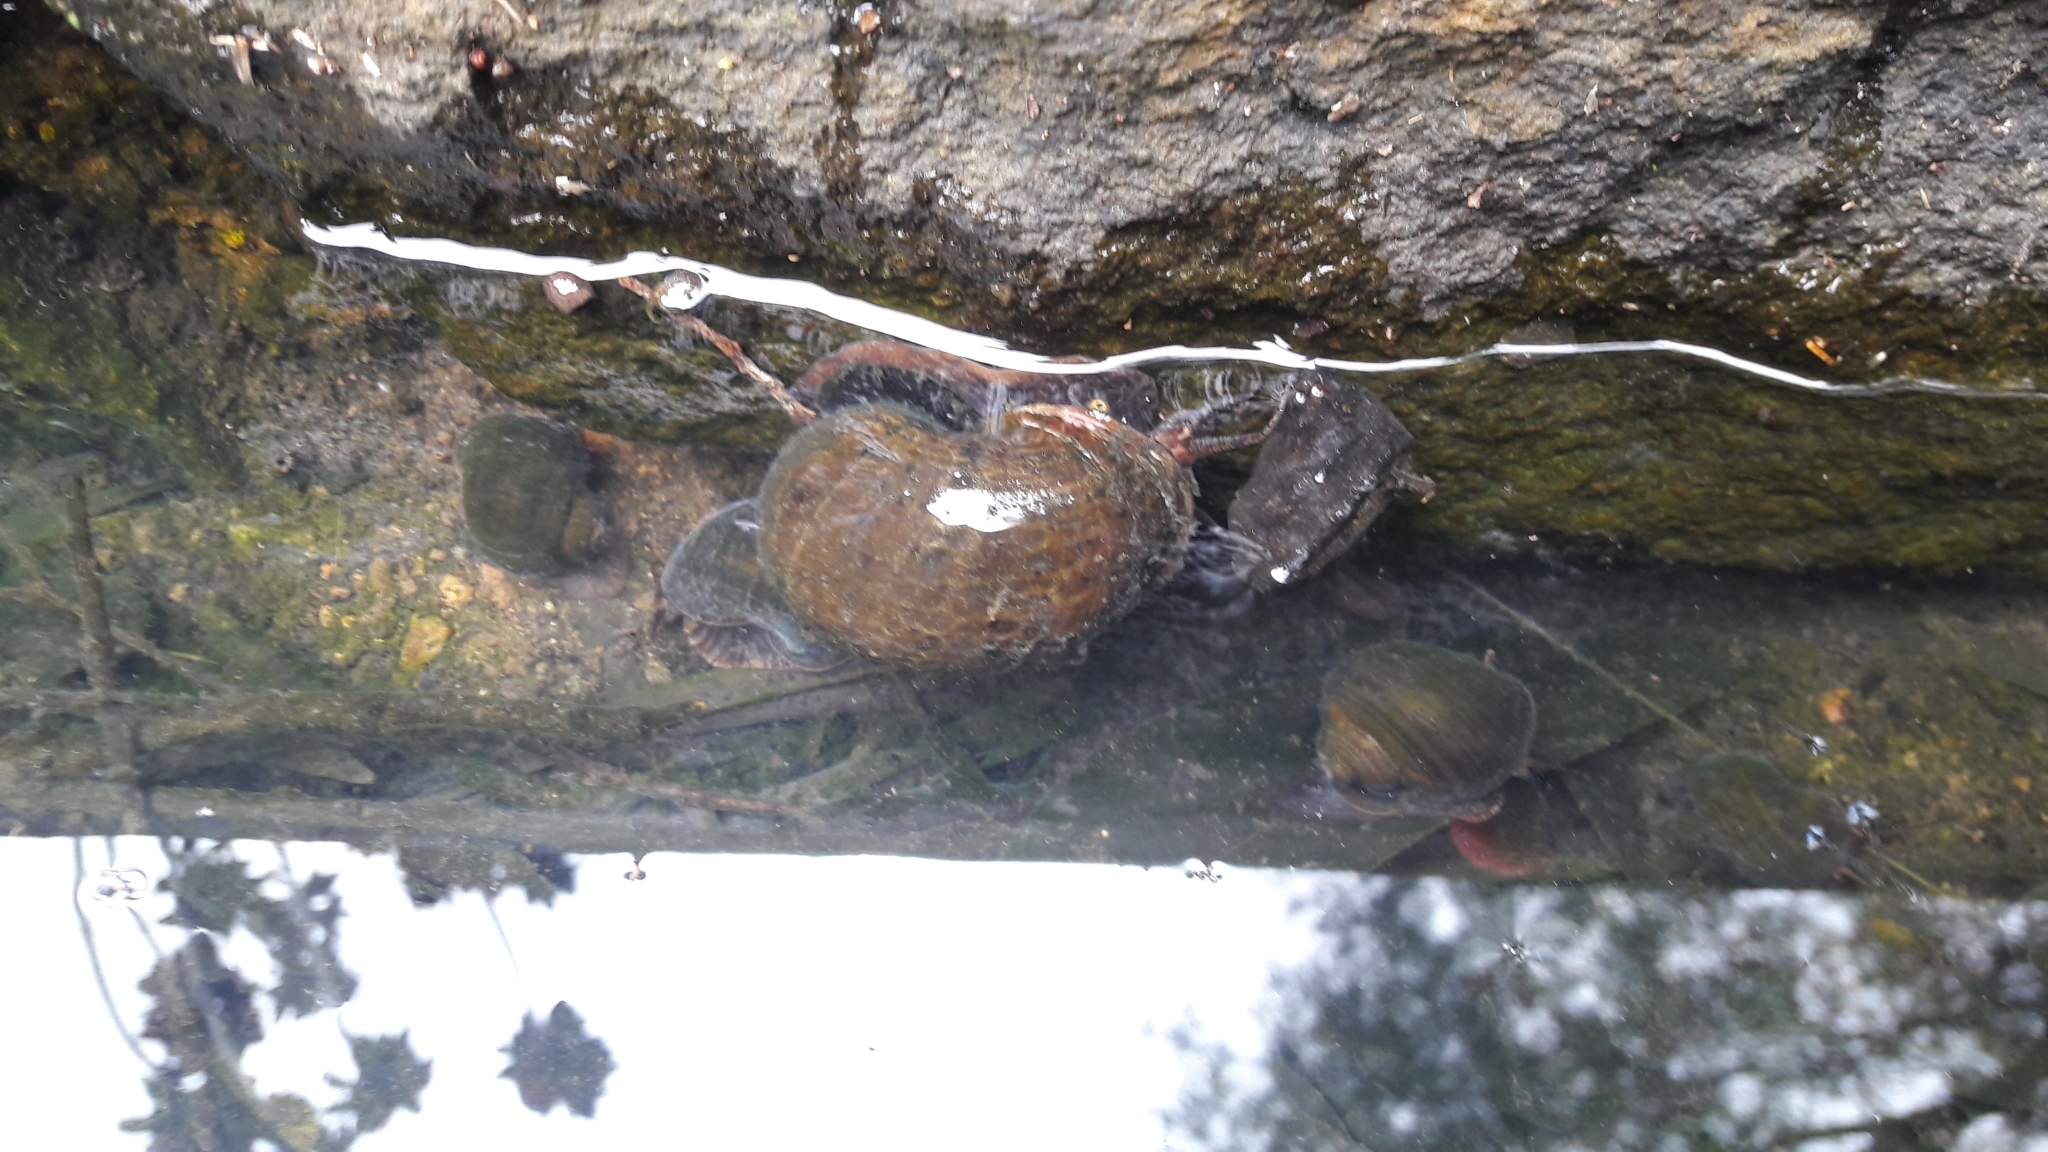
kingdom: Animalia
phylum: Mollusca
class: Gastropoda
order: Architaenioglossa
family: Ampullariidae
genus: Pomacea
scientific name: Pomacea canaliculata
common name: Channeled applesnail
